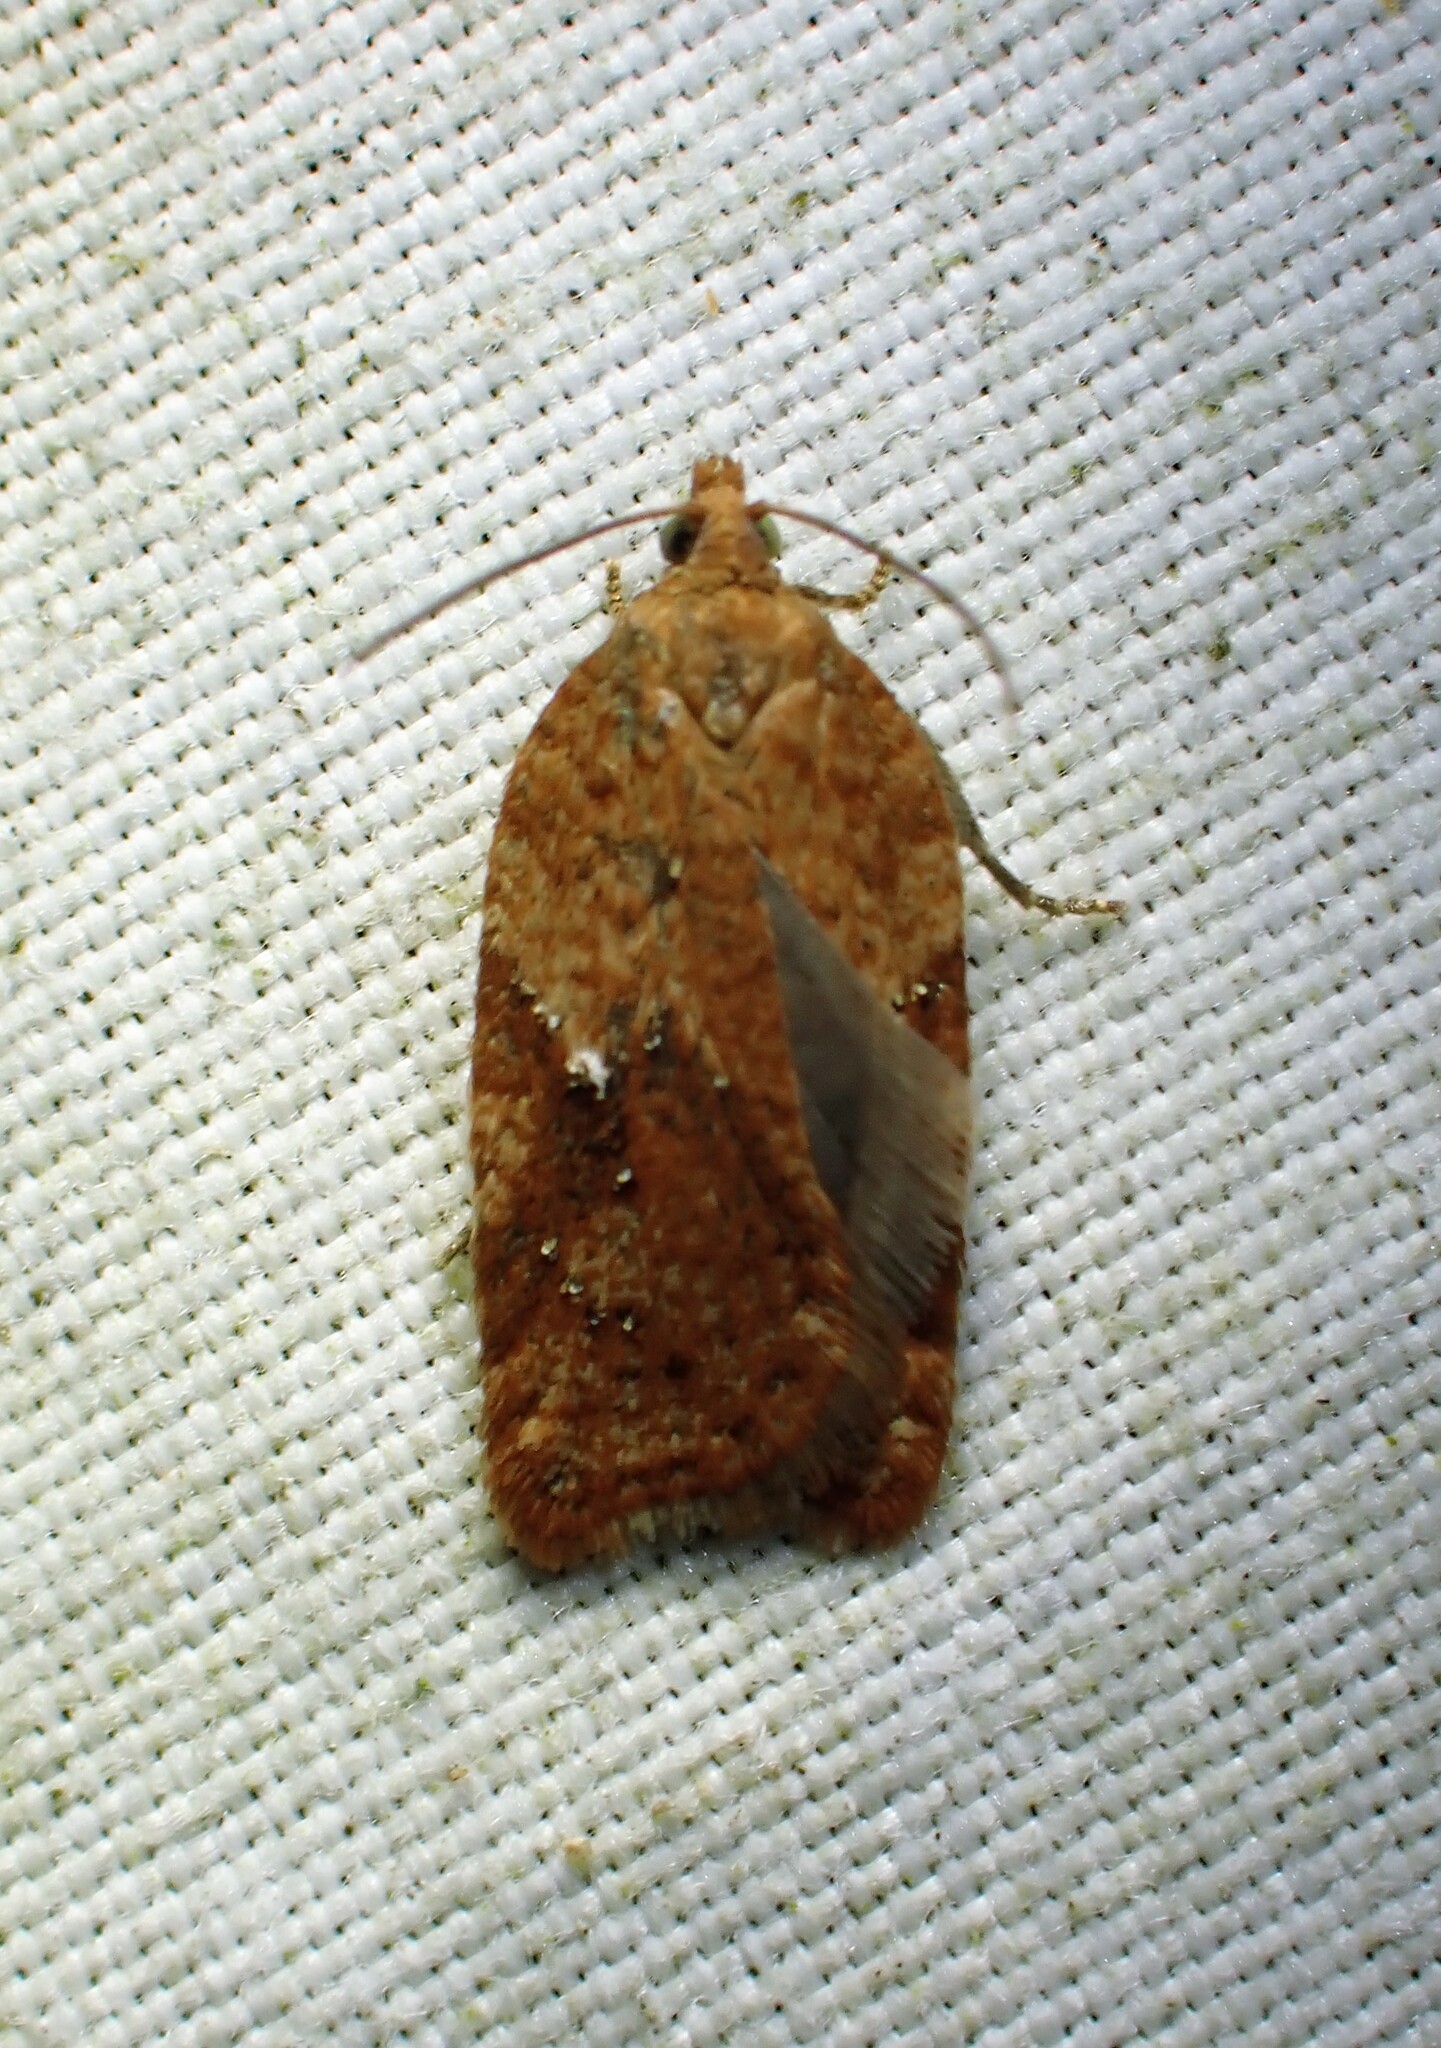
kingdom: Animalia
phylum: Arthropoda
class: Insecta
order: Lepidoptera
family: Tortricidae
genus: Acleris
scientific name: Acleris stadiana
